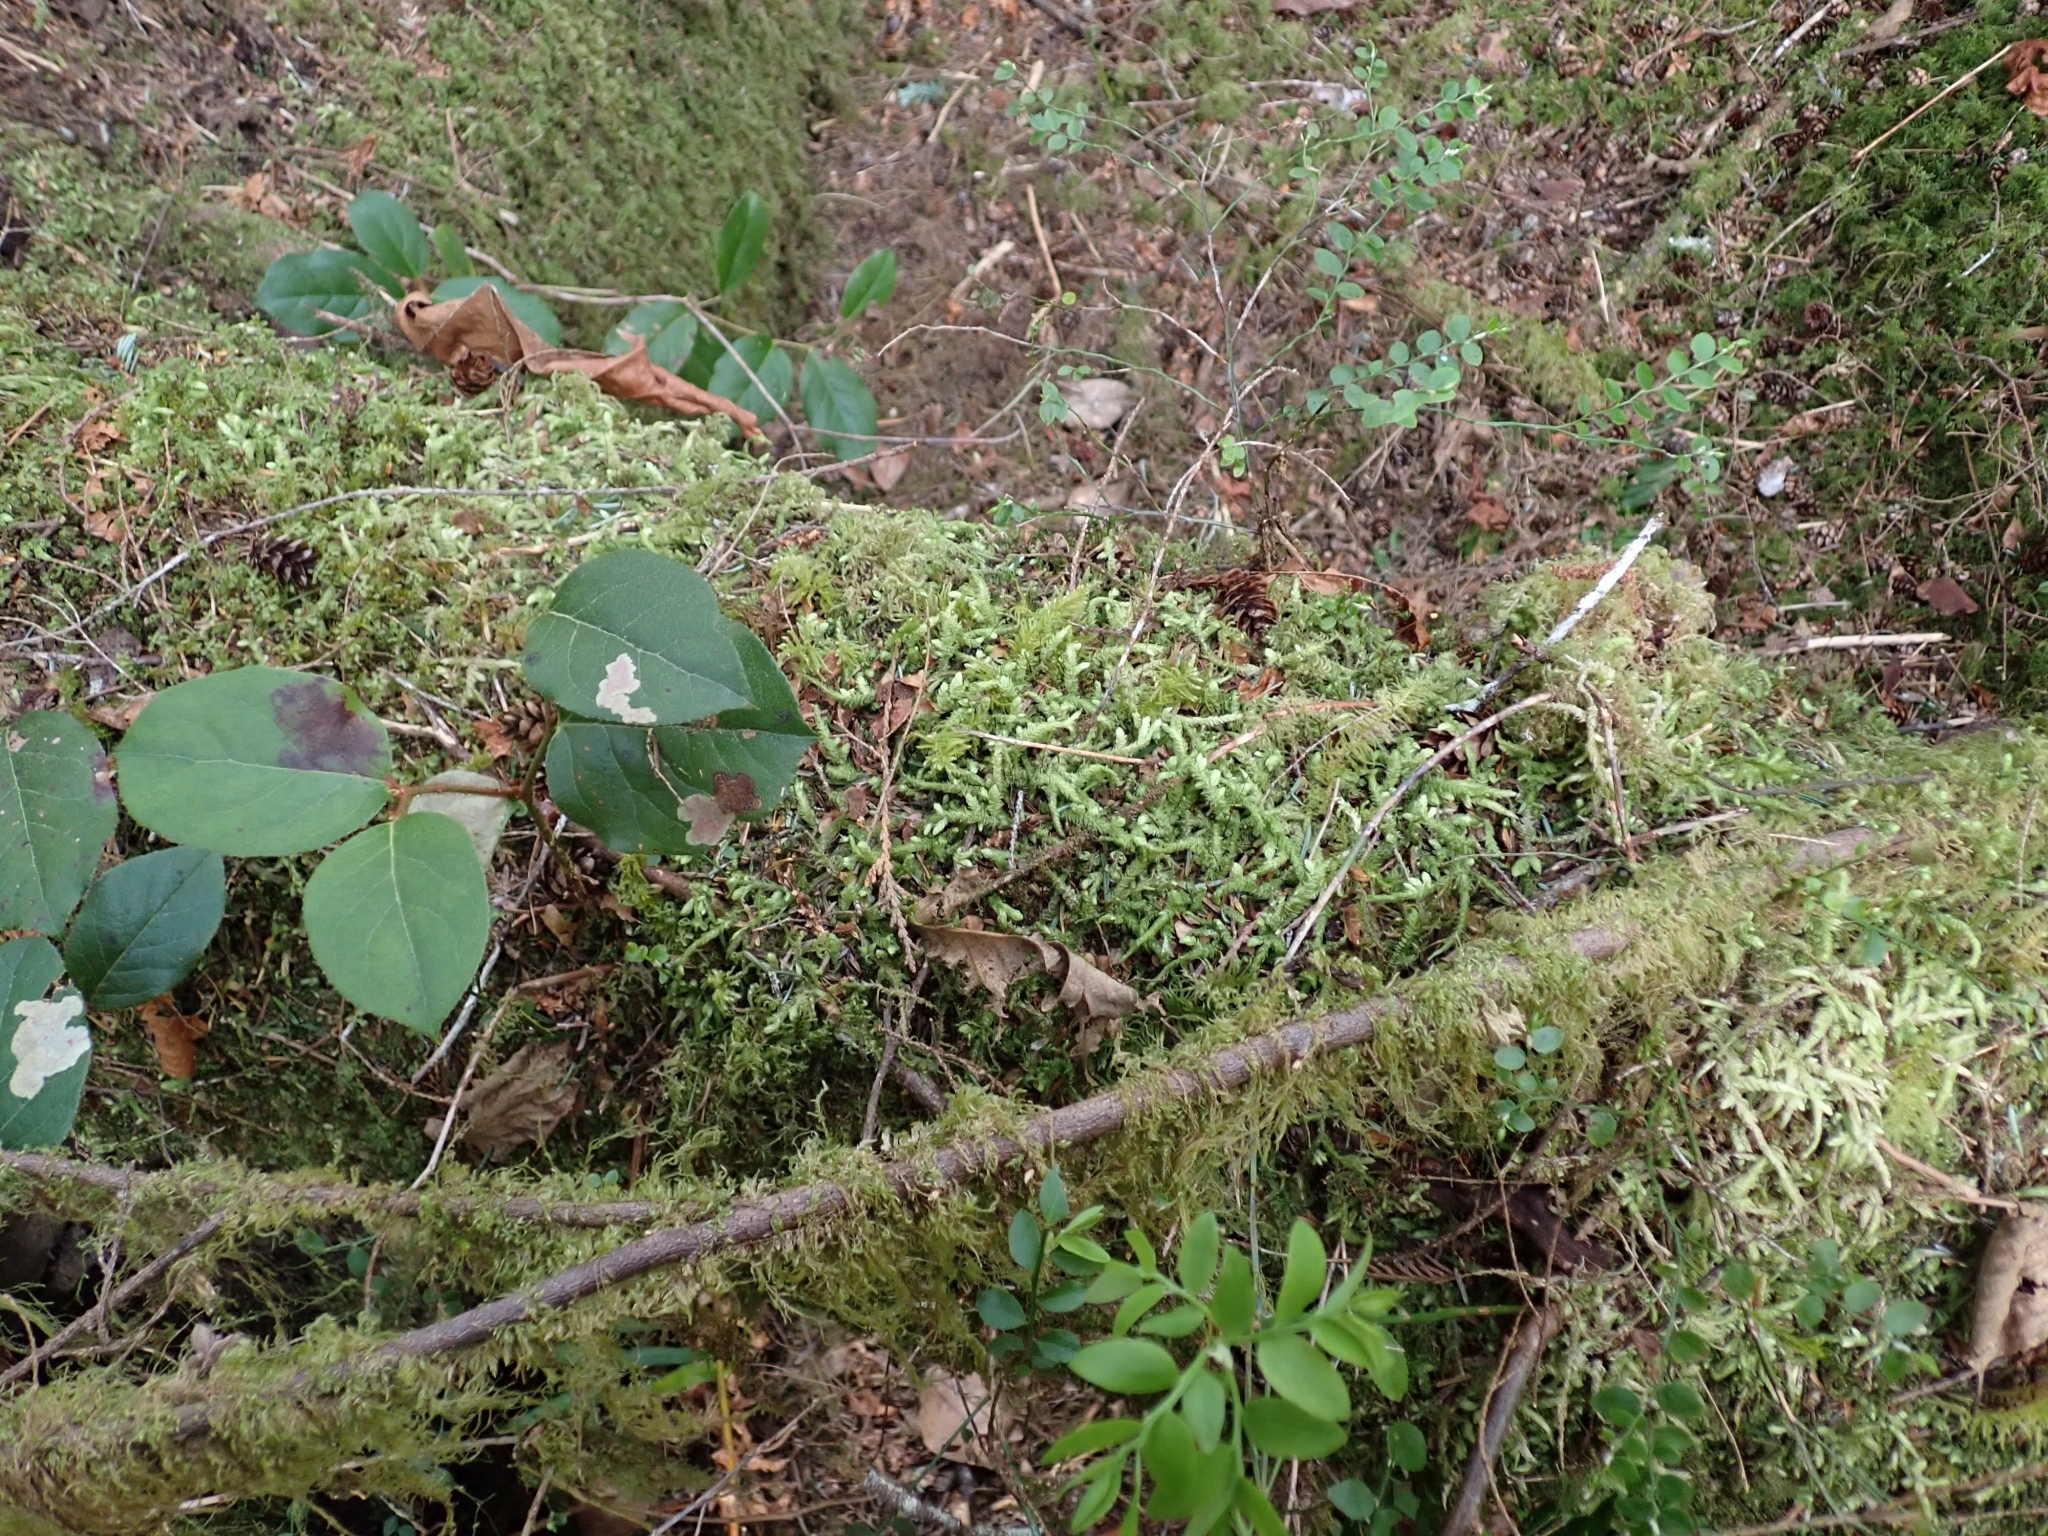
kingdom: Plantae
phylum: Bryophyta
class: Bryopsida
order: Hypnales
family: Plagiotheciaceae
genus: Plagiothecium
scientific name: Plagiothecium undulatum
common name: Waved silk-moss
